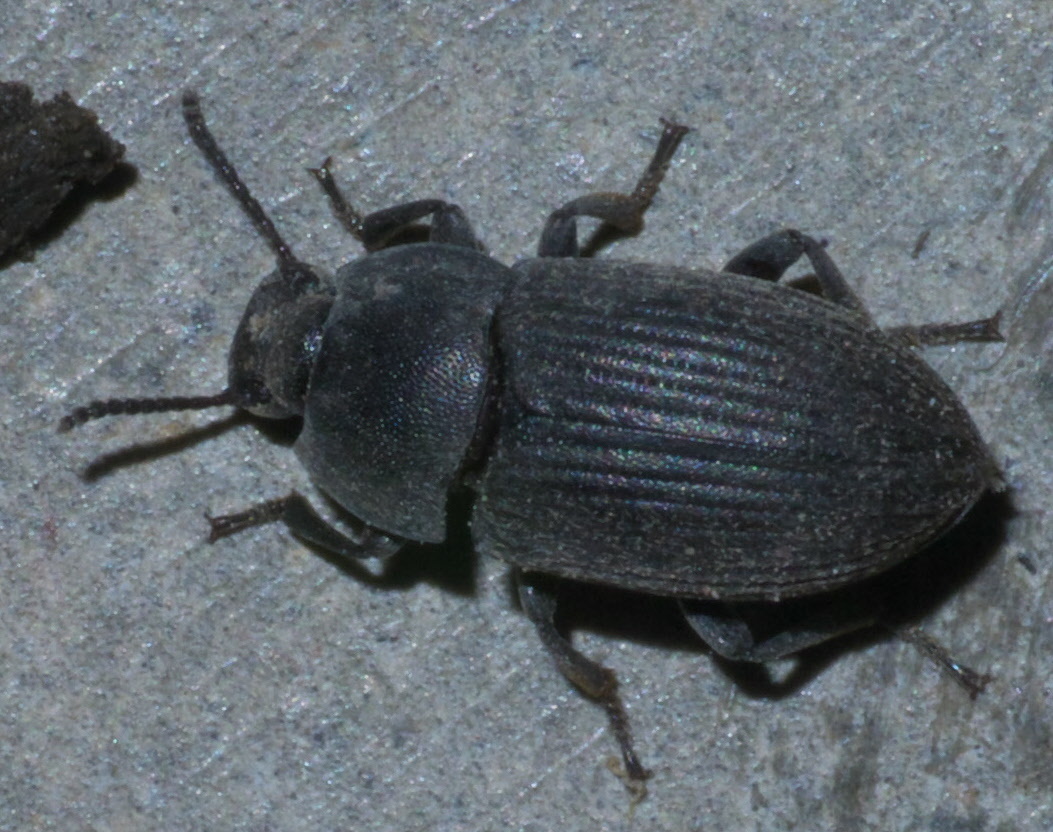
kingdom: Animalia
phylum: Arthropoda
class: Insecta
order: Coleoptera
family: Tenebrionidae
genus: Blapstinus
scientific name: Blapstinus fortis
